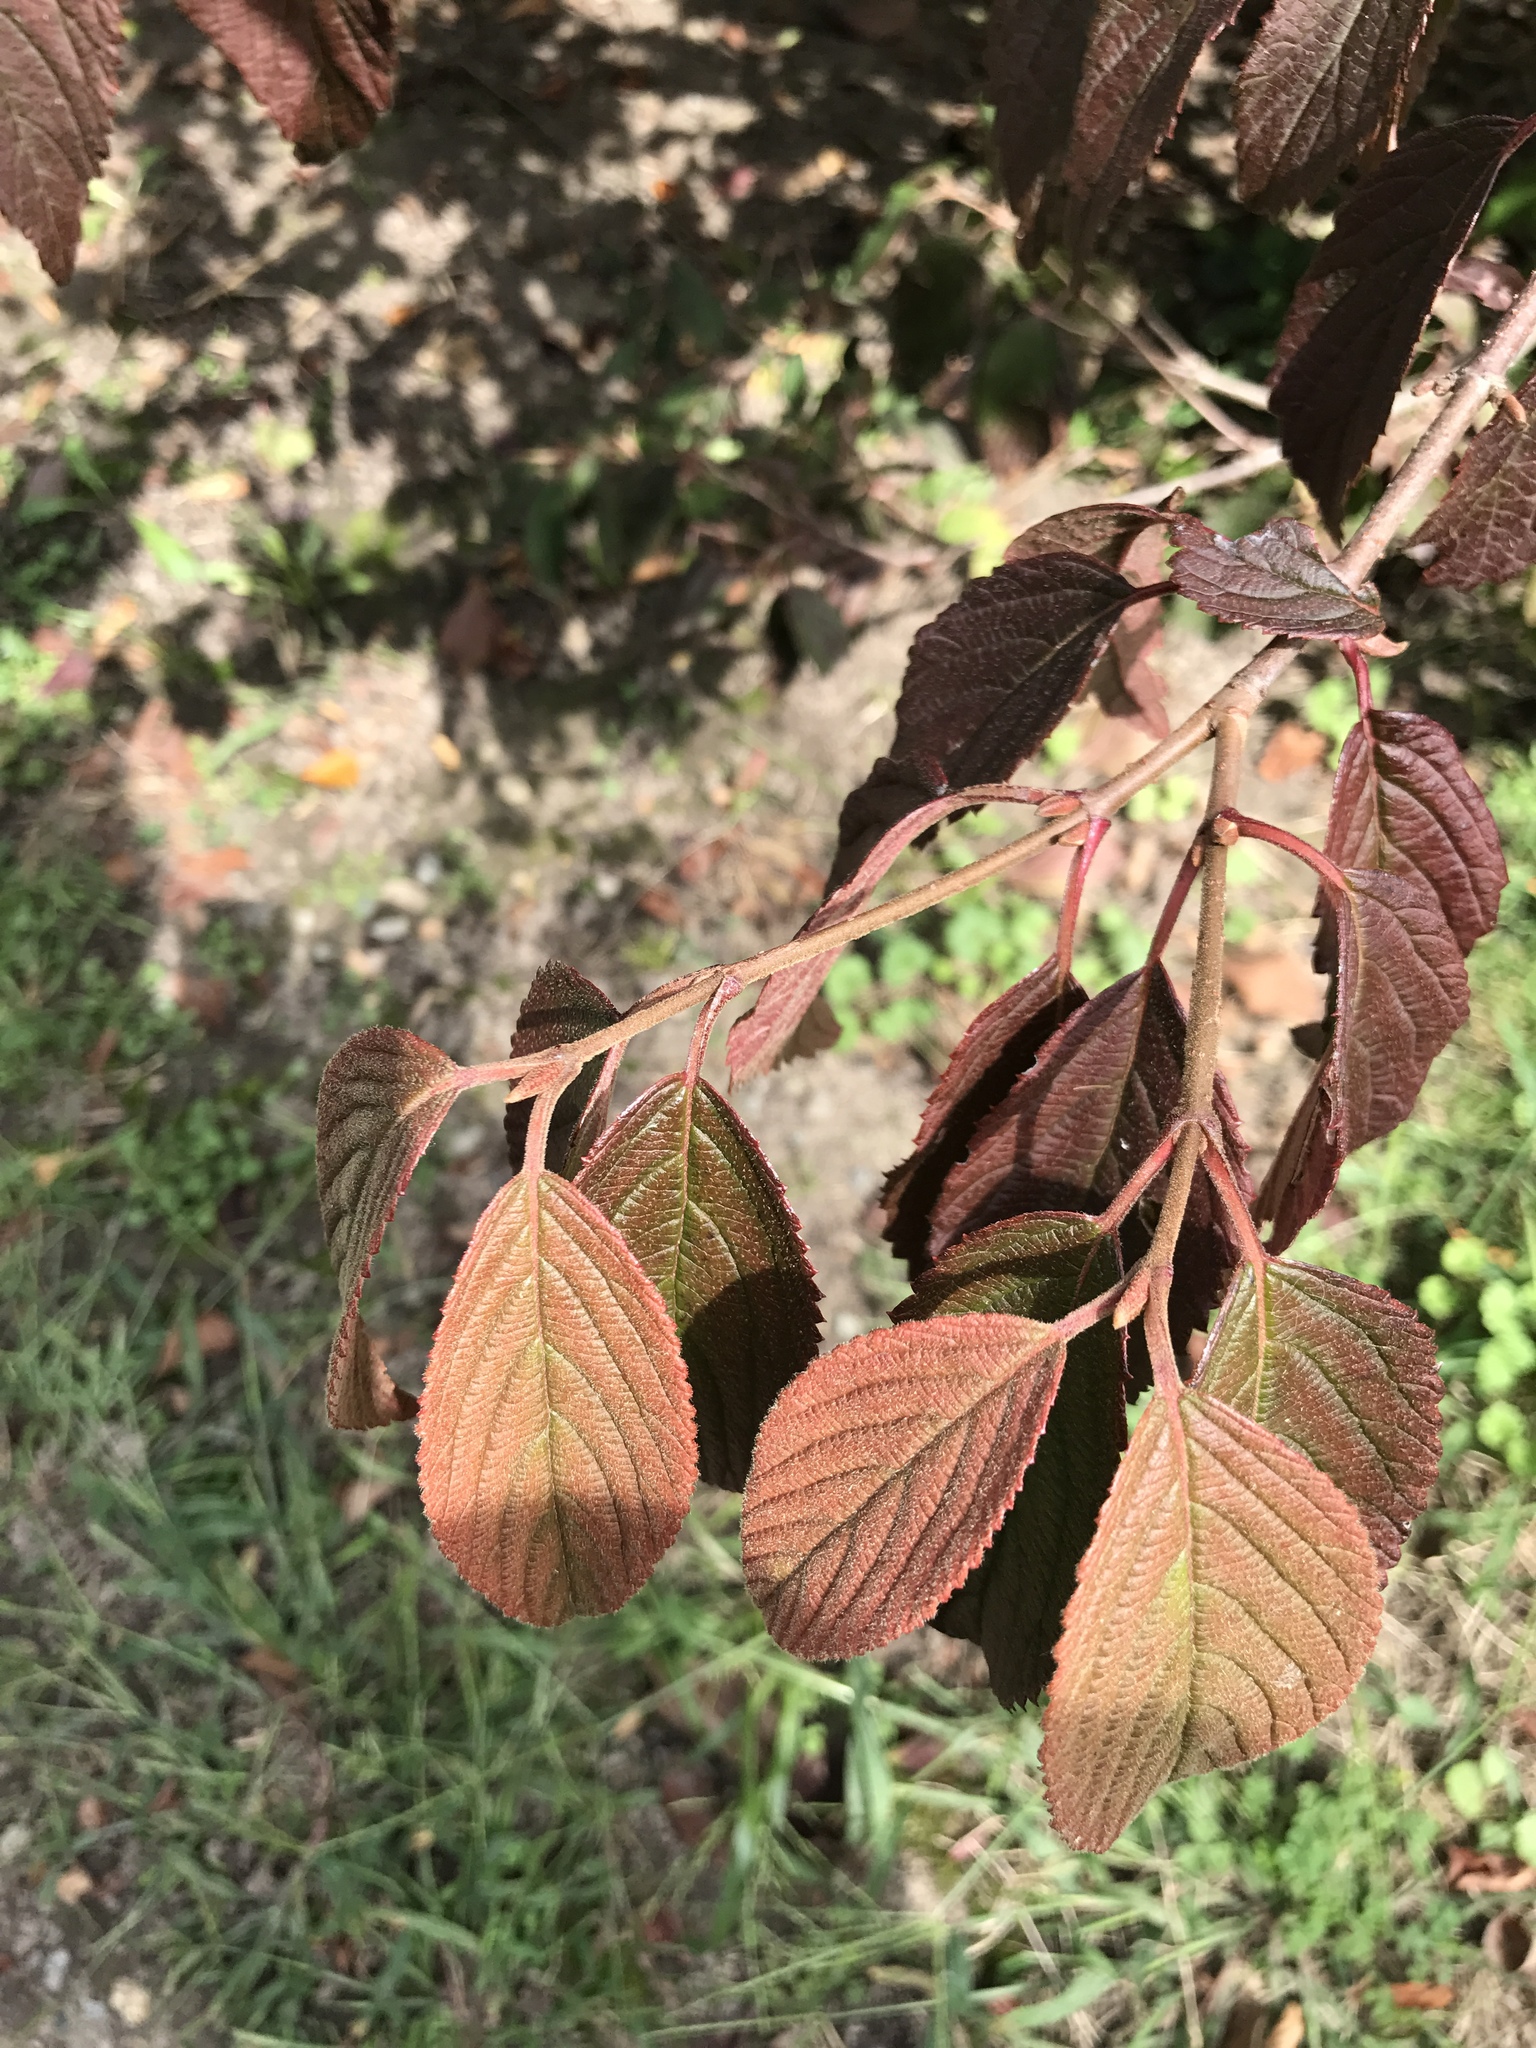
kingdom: Plantae
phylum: Tracheophyta
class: Magnoliopsida
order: Dipsacales
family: Viburnaceae
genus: Viburnum
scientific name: Viburnum plicatum
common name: Japanese snowball
